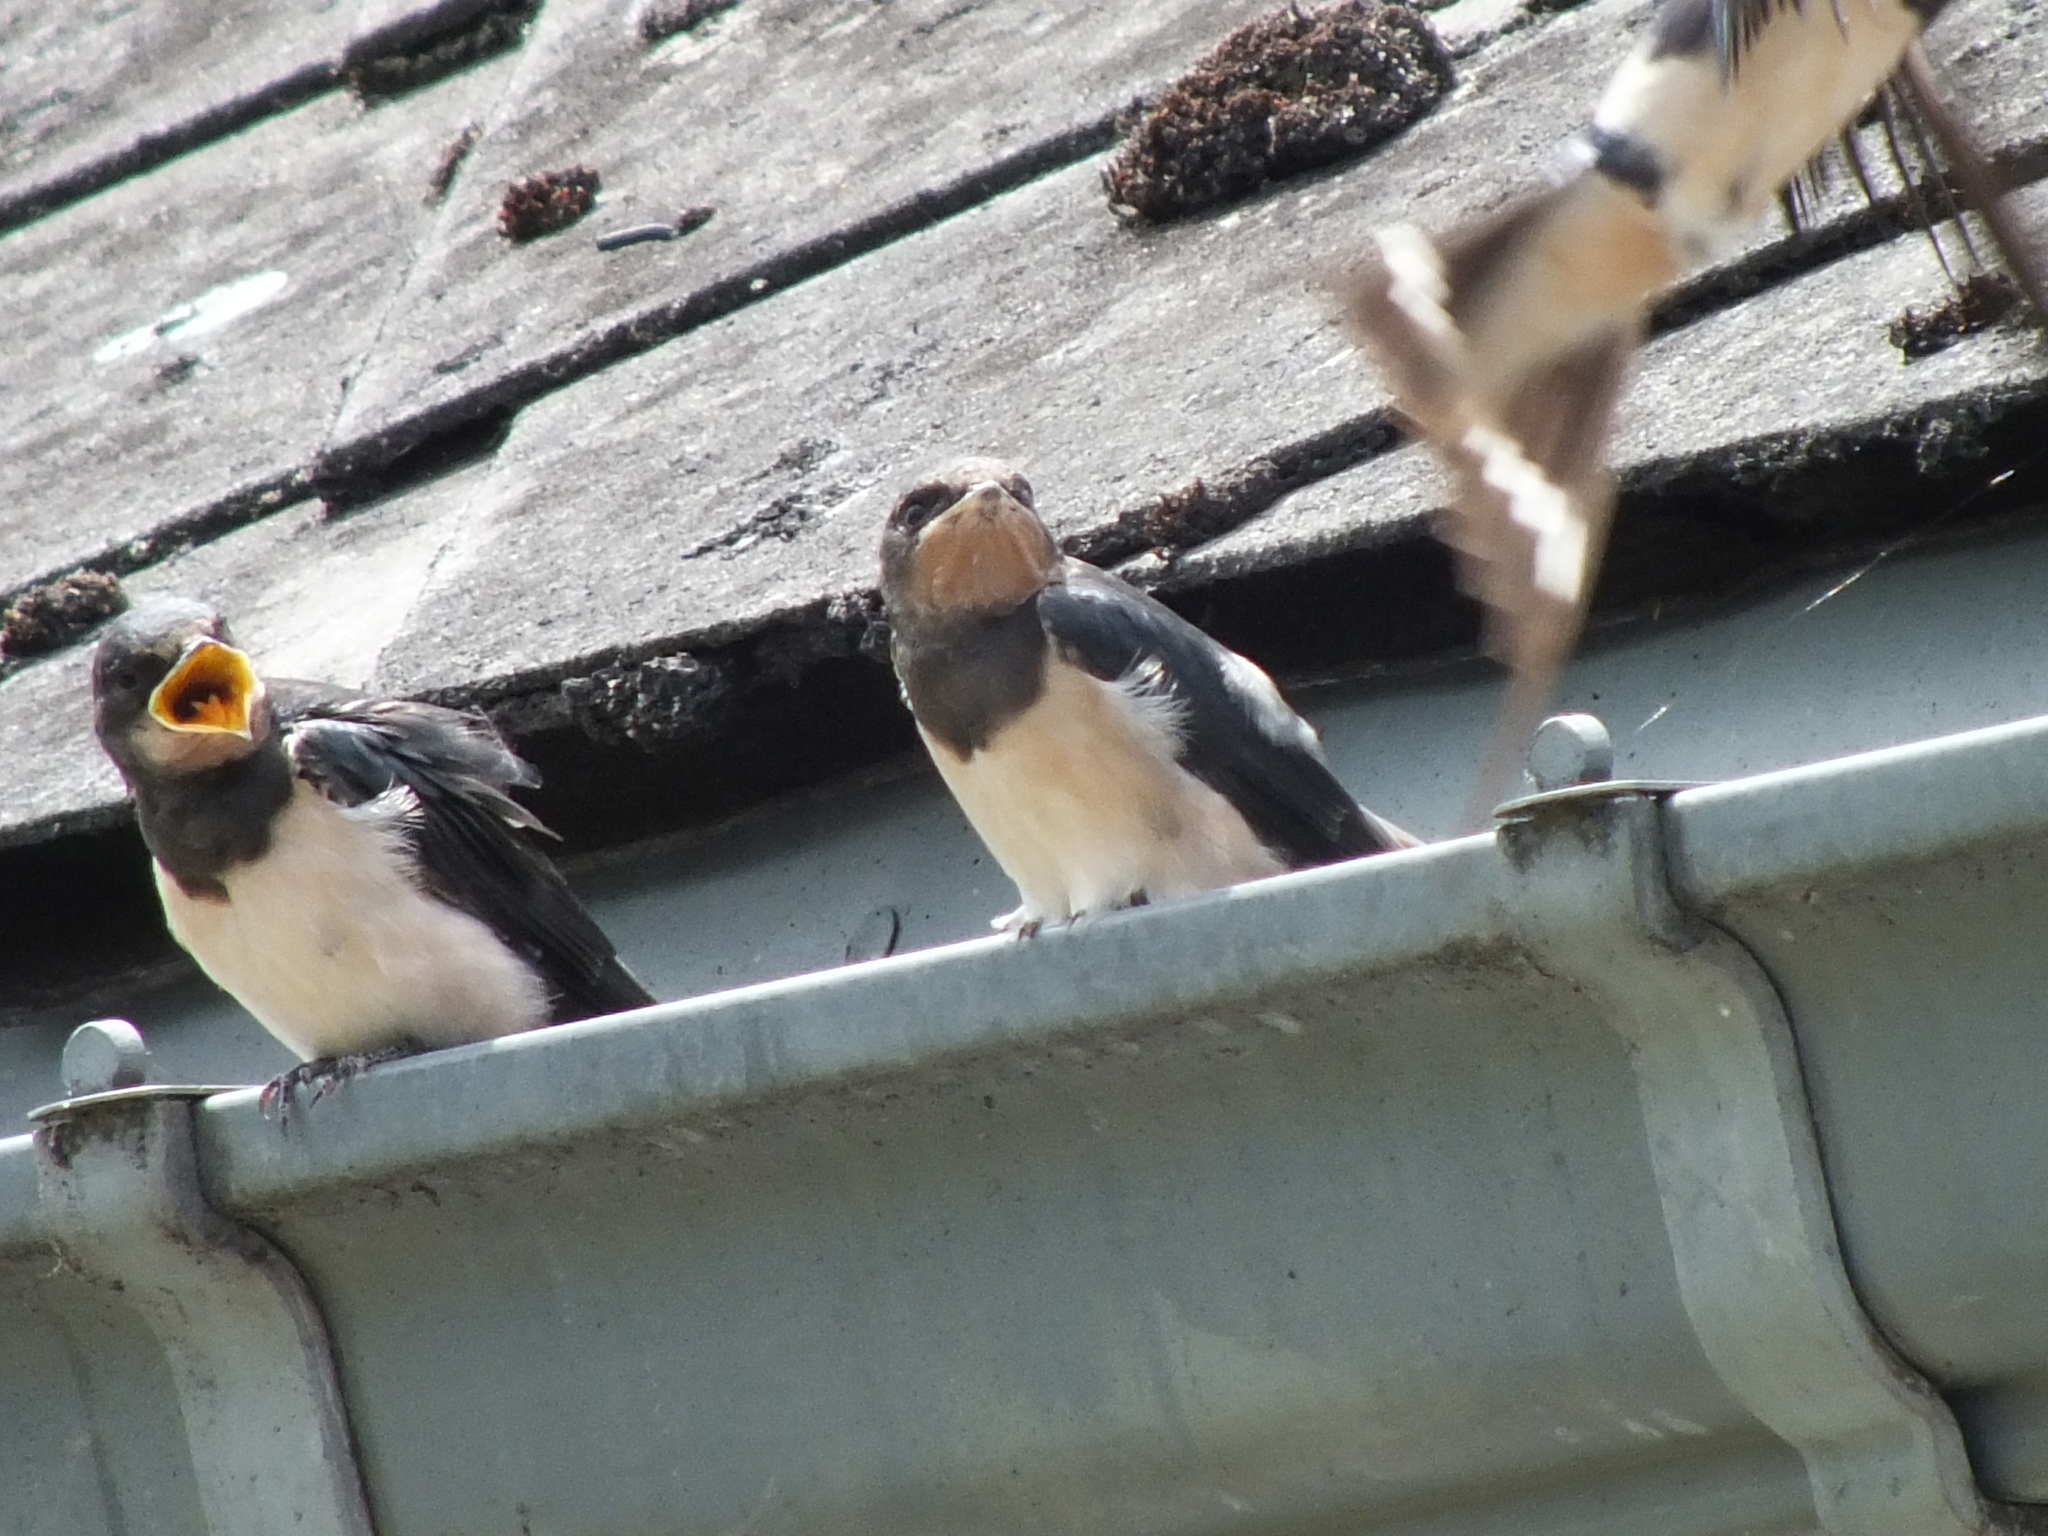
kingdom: Animalia
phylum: Chordata
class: Aves
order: Passeriformes
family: Hirundinidae
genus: Hirundo
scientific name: Hirundo rustica
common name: Barn swallow
